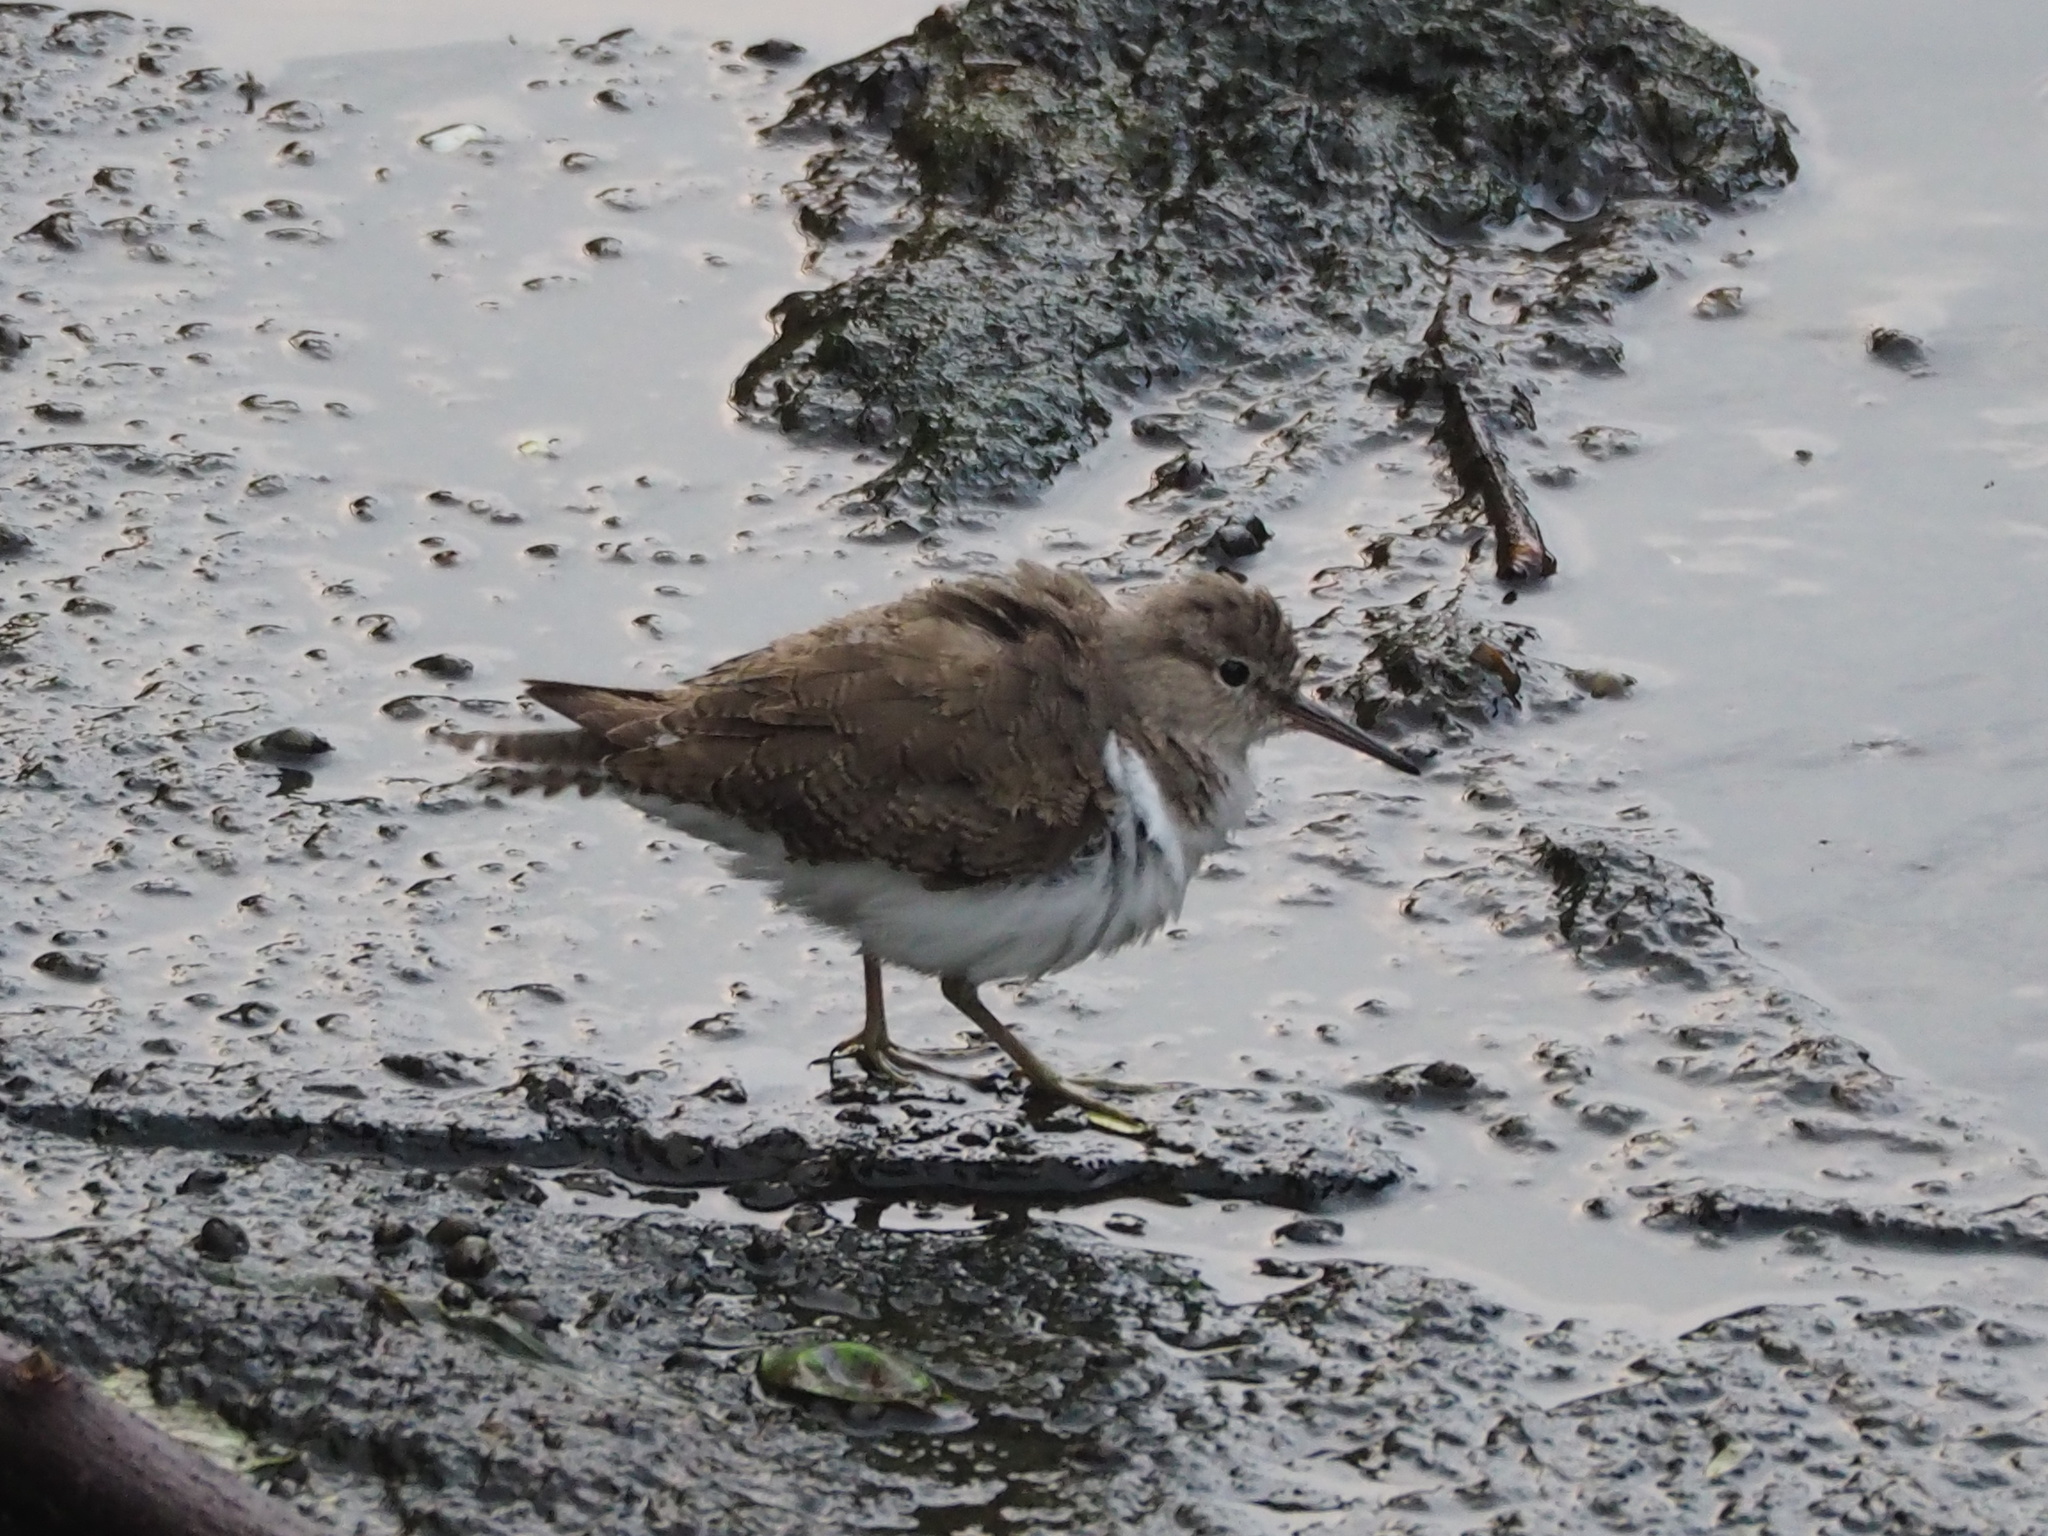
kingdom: Animalia
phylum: Chordata
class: Aves
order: Charadriiformes
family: Scolopacidae
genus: Actitis
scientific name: Actitis hypoleucos
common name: Common sandpiper
